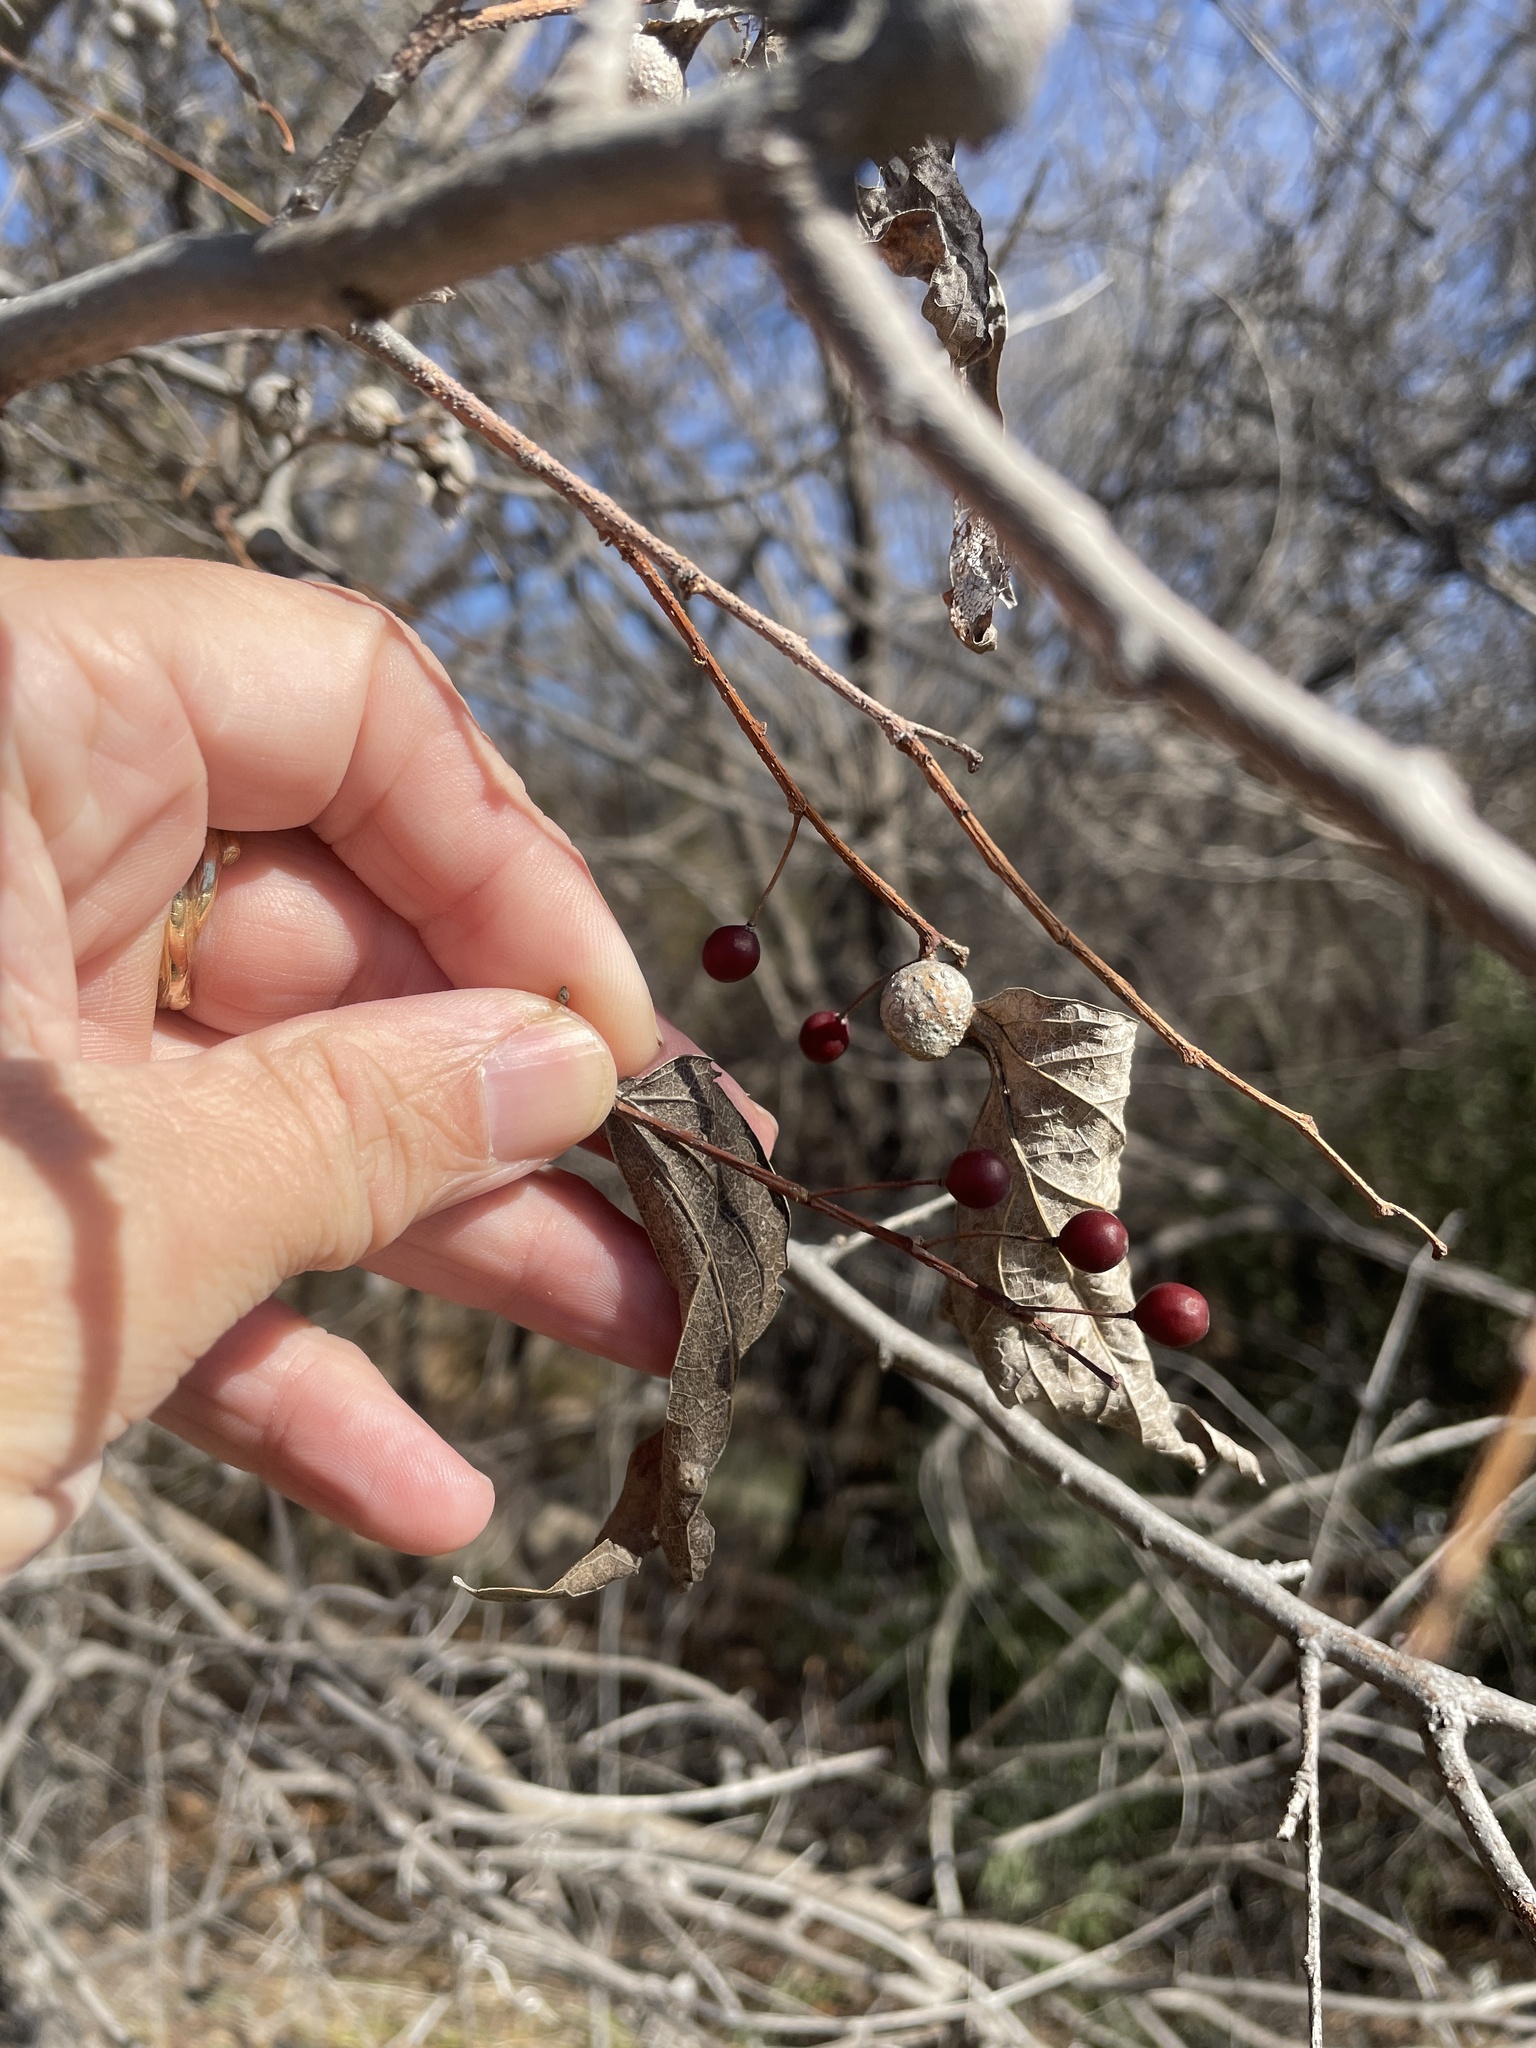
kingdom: Plantae
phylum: Tracheophyta
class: Magnoliopsida
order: Rosales
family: Cannabaceae
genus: Celtis
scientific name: Celtis laevigata
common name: Sugarberry
